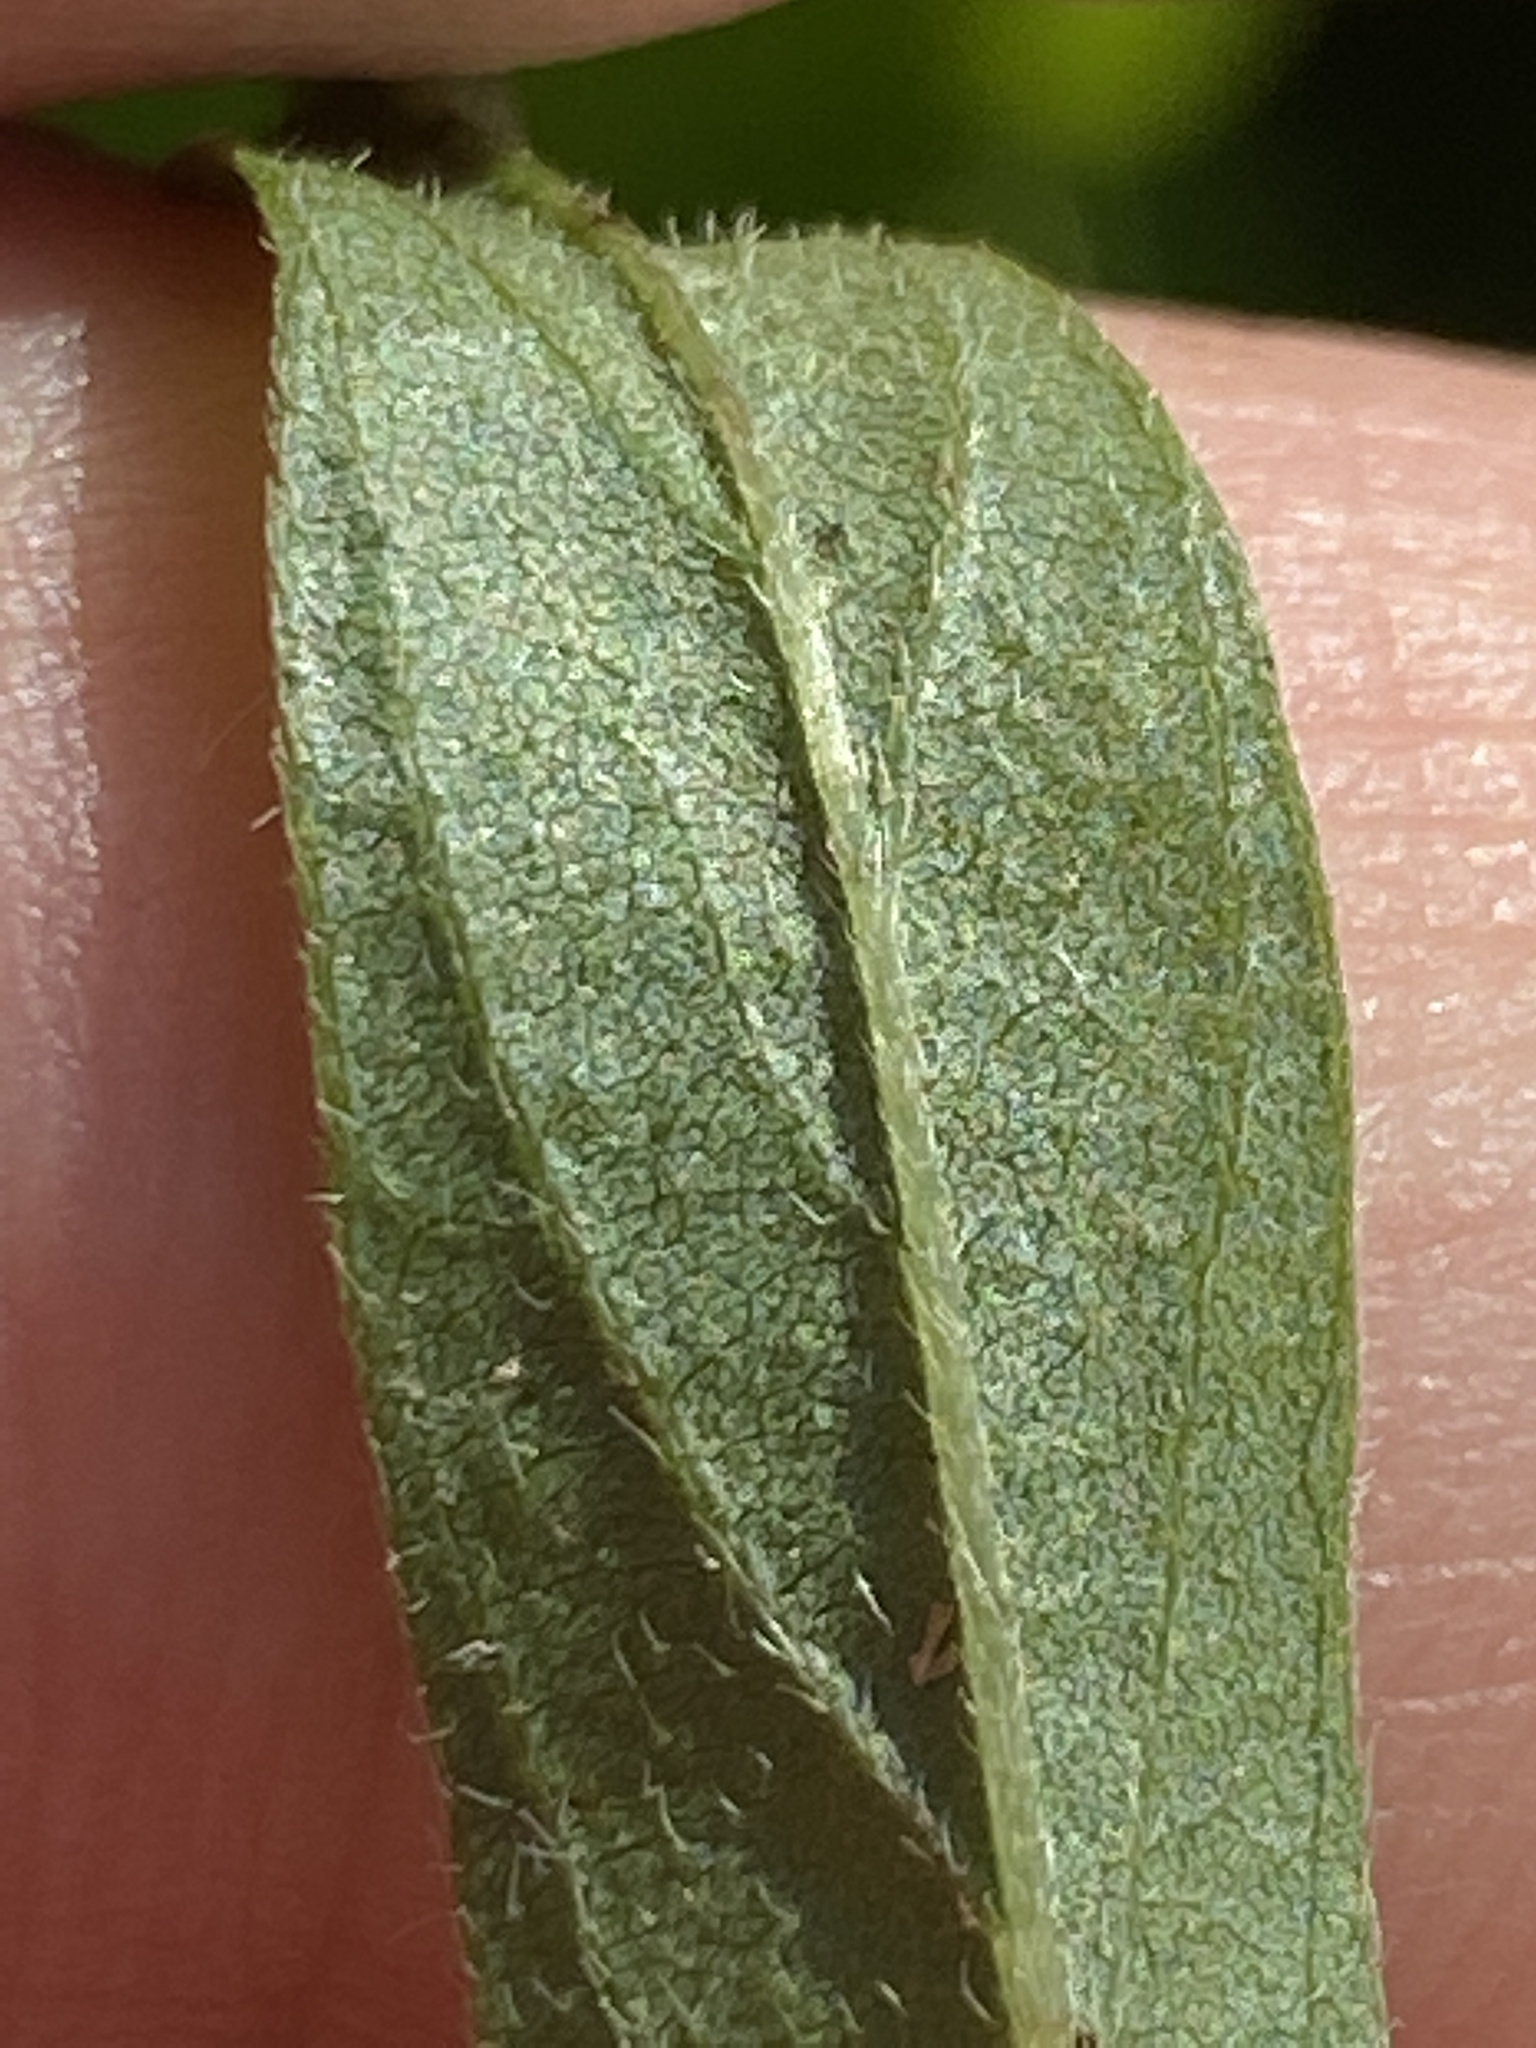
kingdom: Plantae
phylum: Tracheophyta
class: Magnoliopsida
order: Fabales
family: Fabaceae
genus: Orbexilum
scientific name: Orbexilum psoralioides
